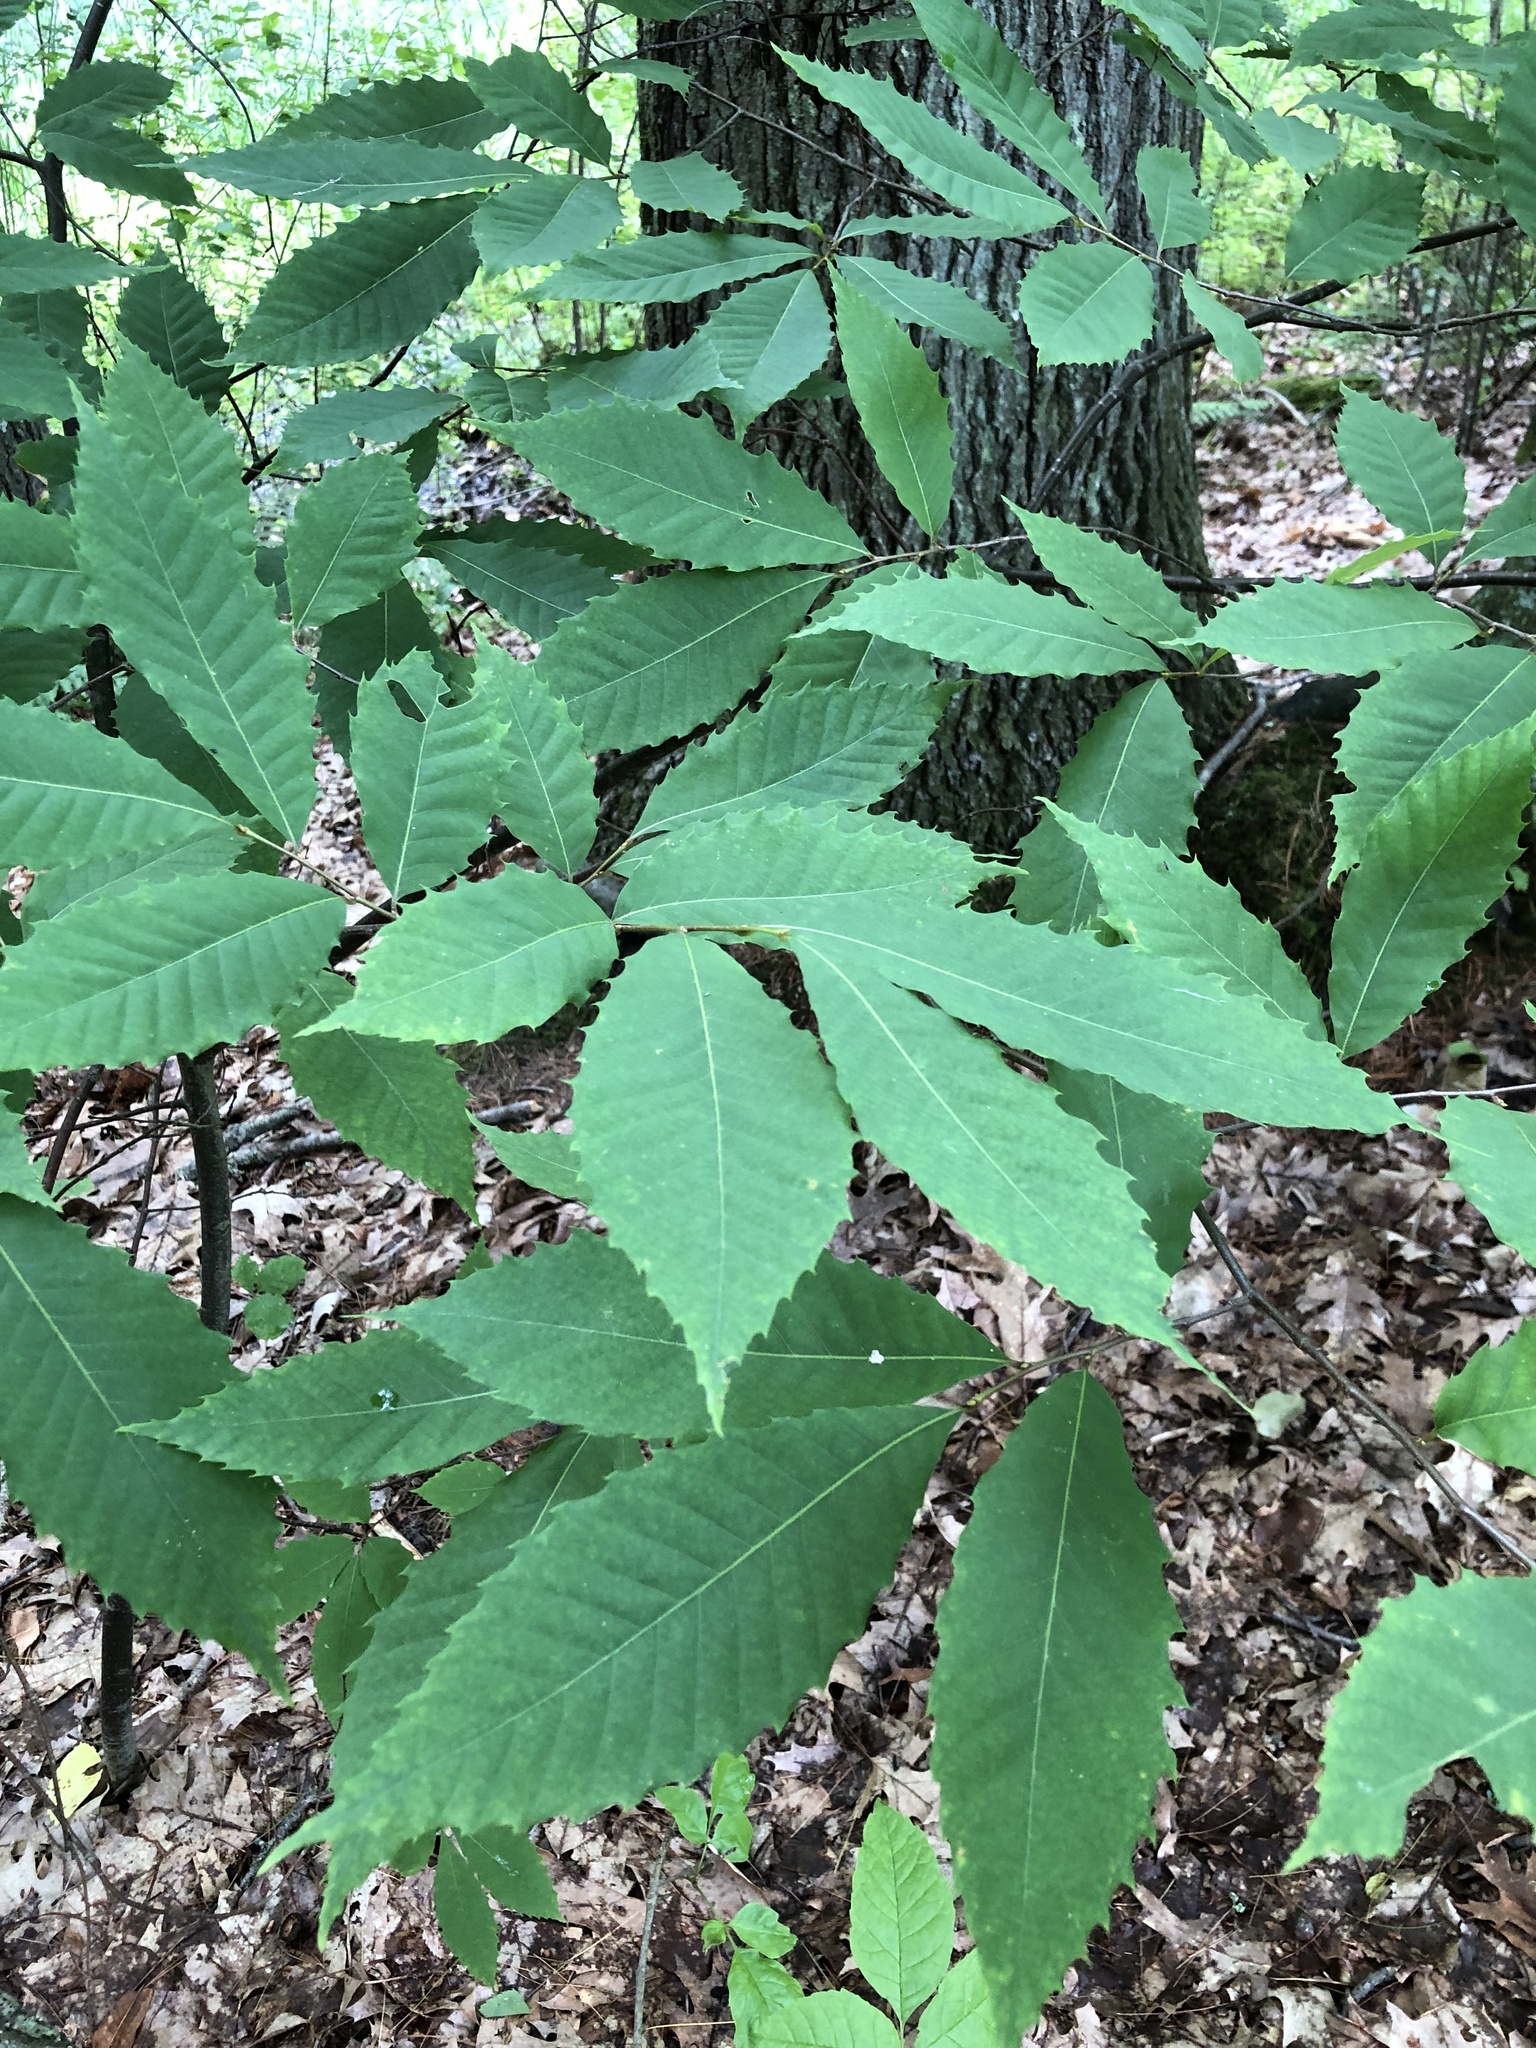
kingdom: Plantae
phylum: Tracheophyta
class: Magnoliopsida
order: Fagales
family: Fagaceae
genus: Castanea
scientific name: Castanea dentata
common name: American chestnut
